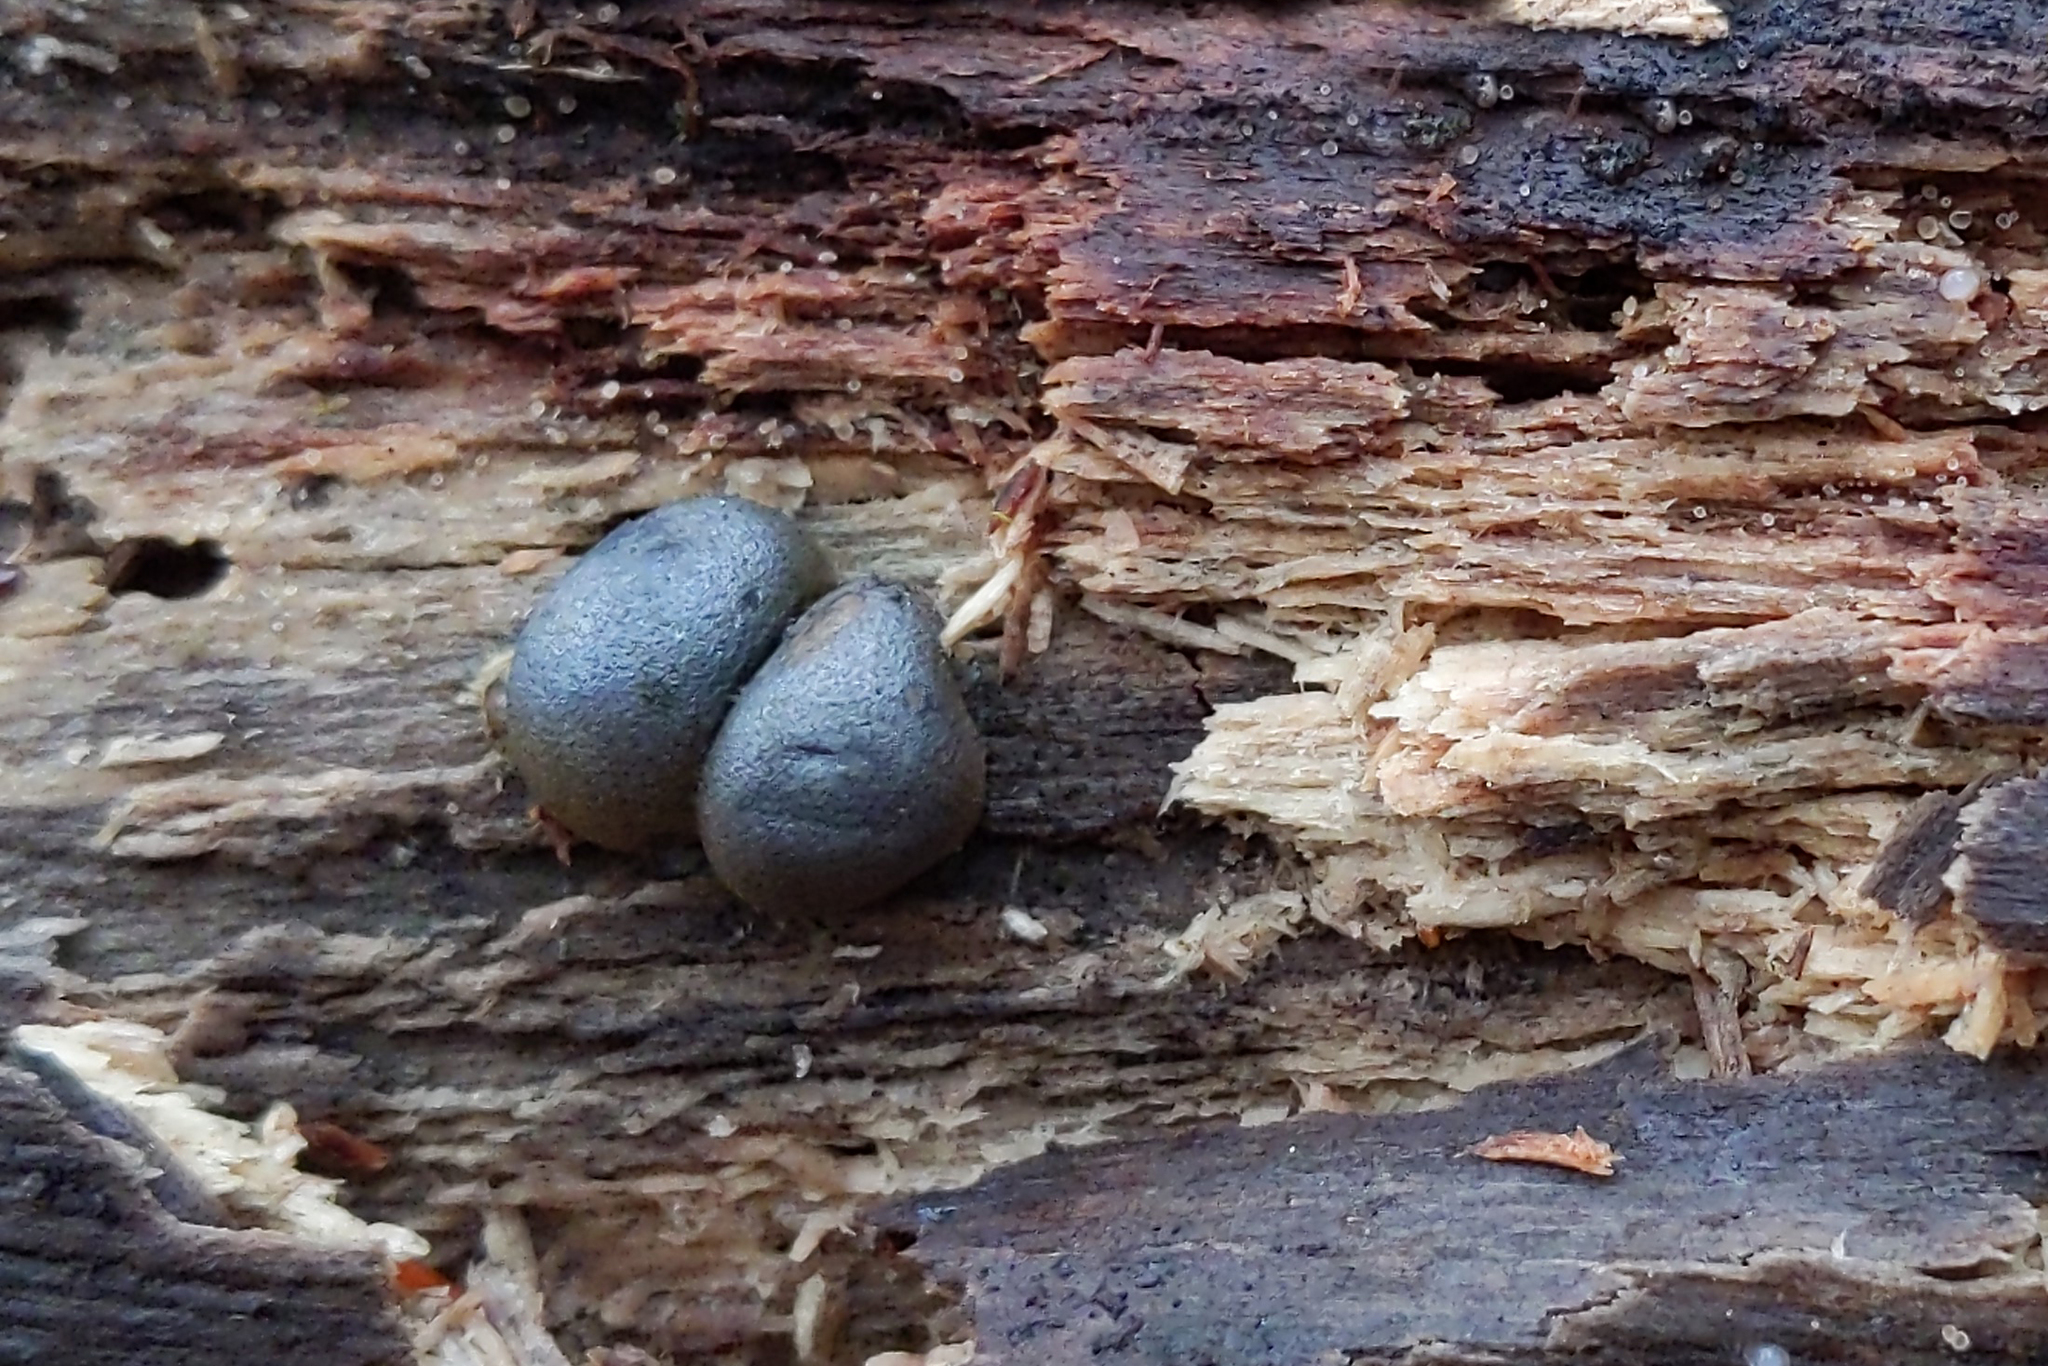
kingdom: Protozoa
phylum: Mycetozoa
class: Myxomycetes
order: Cribrariales
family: Tubiferaceae
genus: Lycogala
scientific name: Lycogala epidendrum
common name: Wolf's milk
